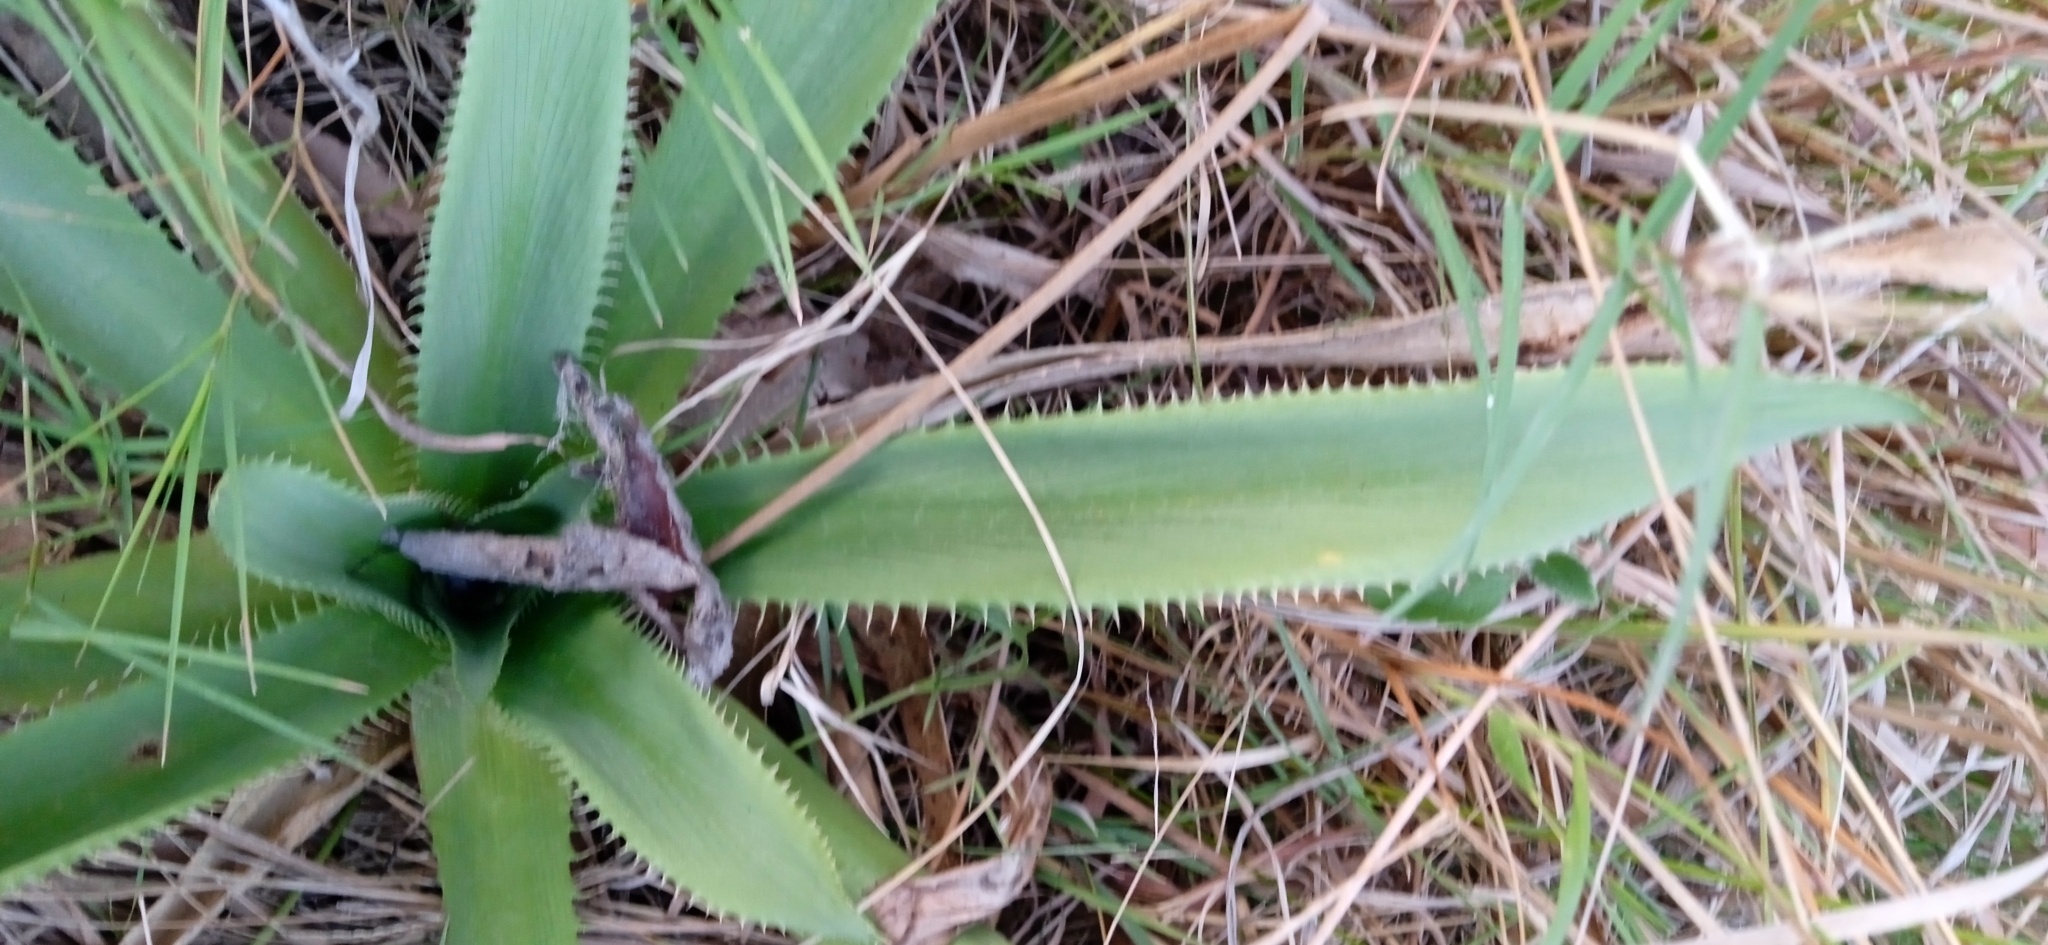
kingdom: Plantae
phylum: Tracheophyta
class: Magnoliopsida
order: Apiales
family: Apiaceae
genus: Eryngium
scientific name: Eryngium elegans
